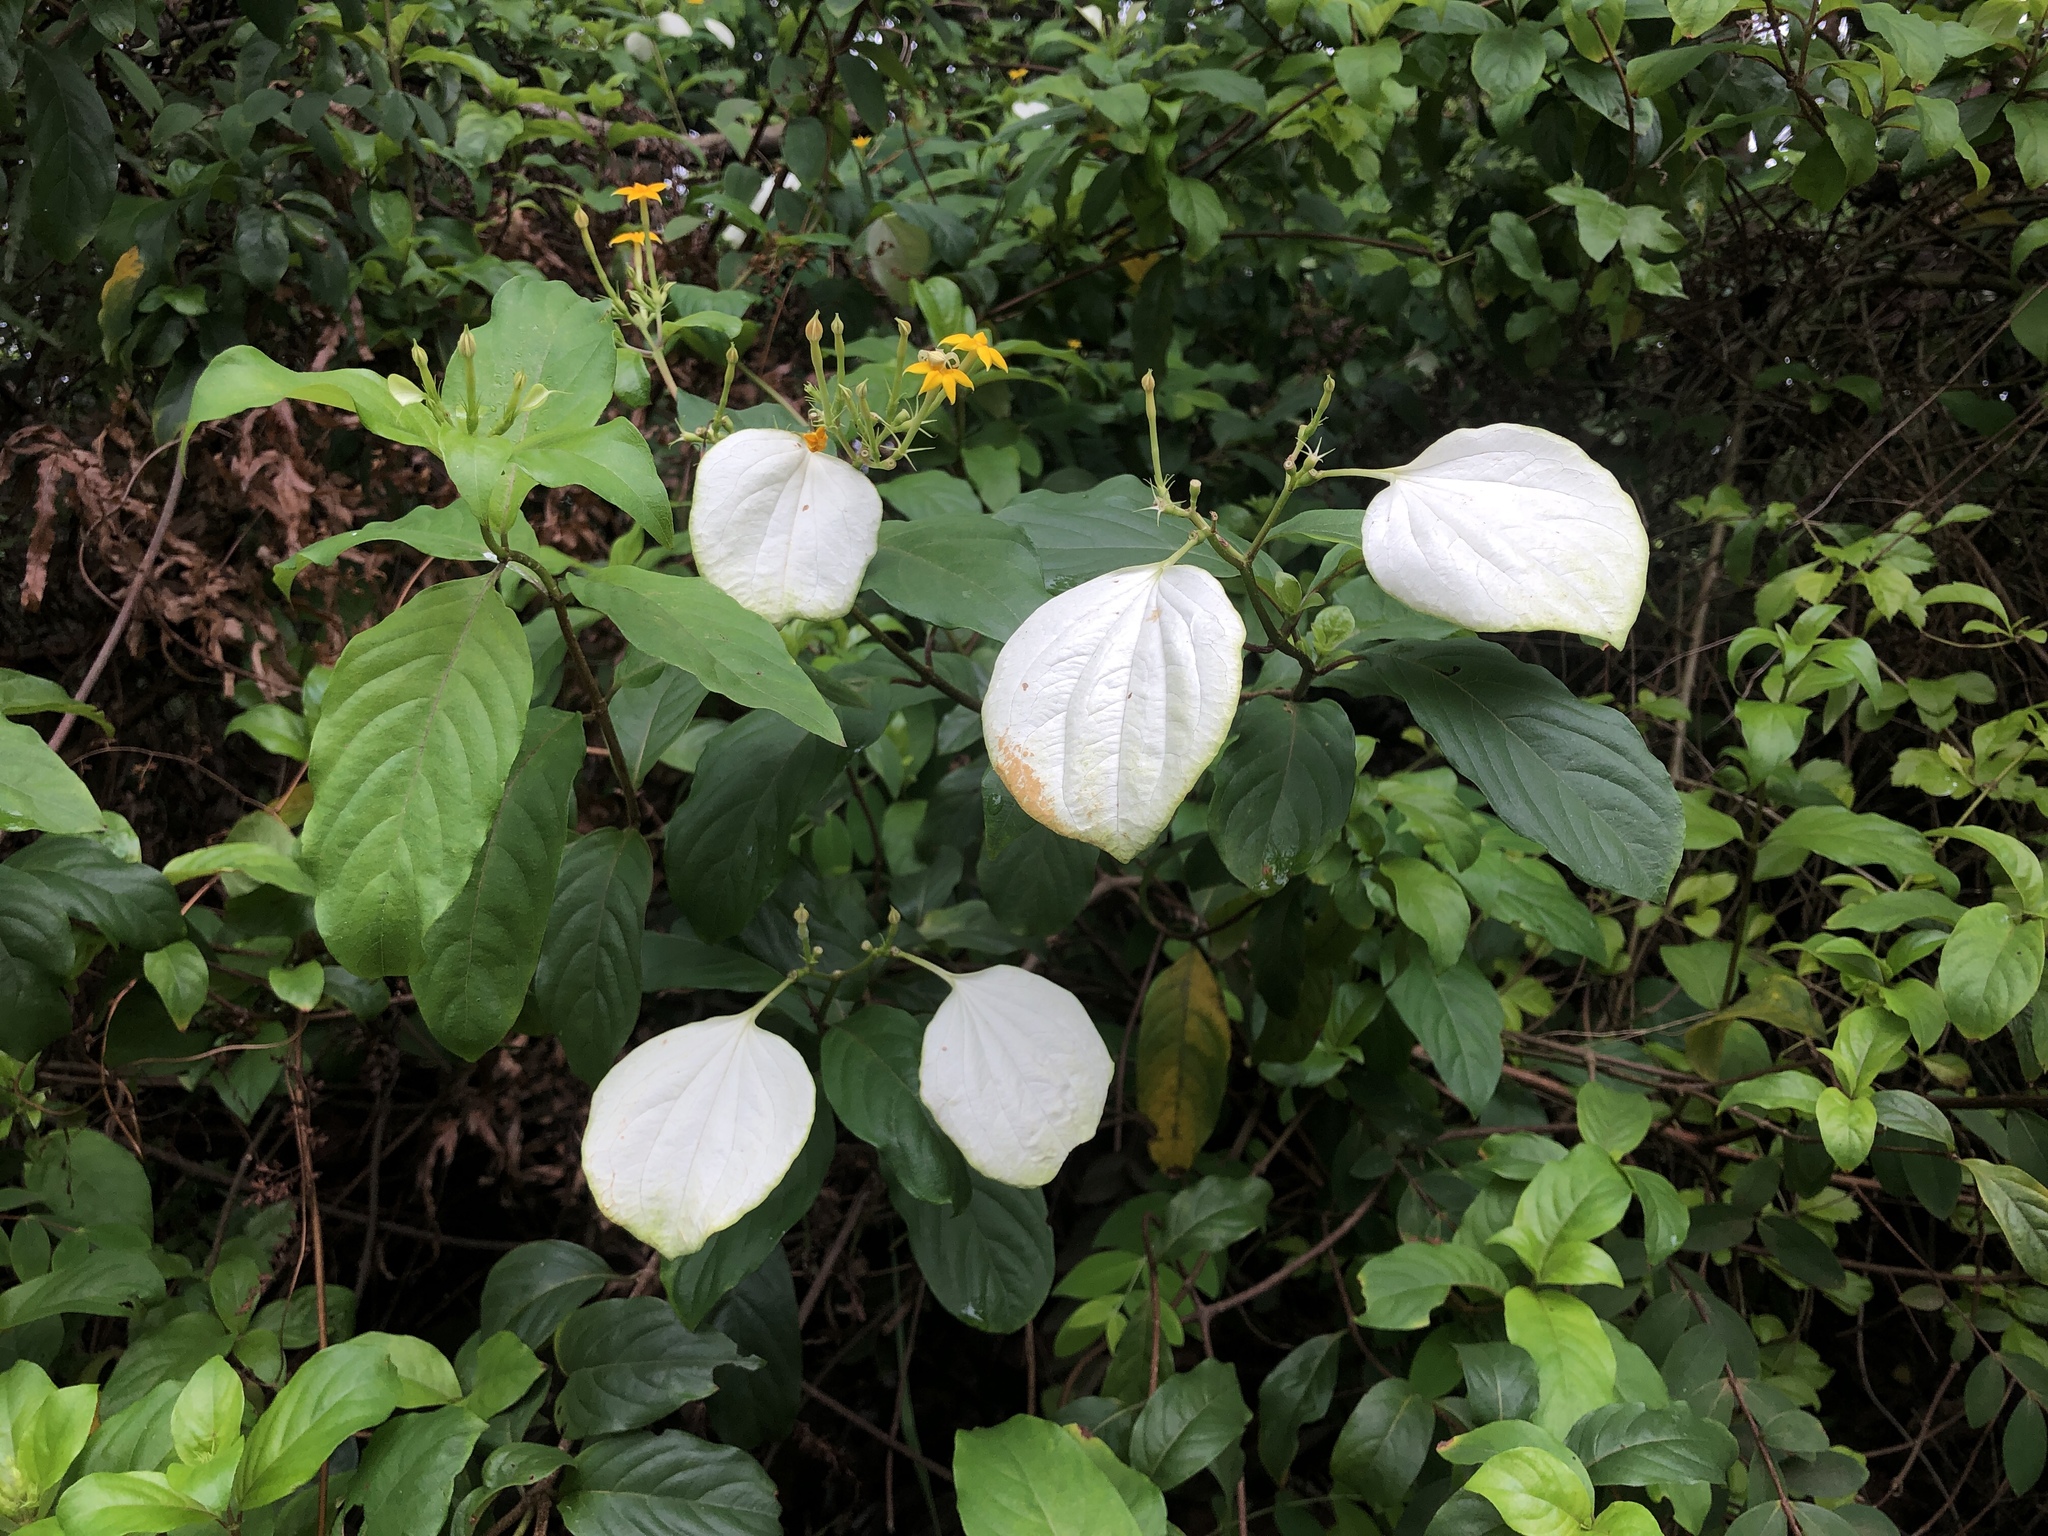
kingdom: Plantae
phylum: Tracheophyta
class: Magnoliopsida
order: Gentianales
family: Rubiaceae
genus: Mussaenda
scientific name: Mussaenda formosana
